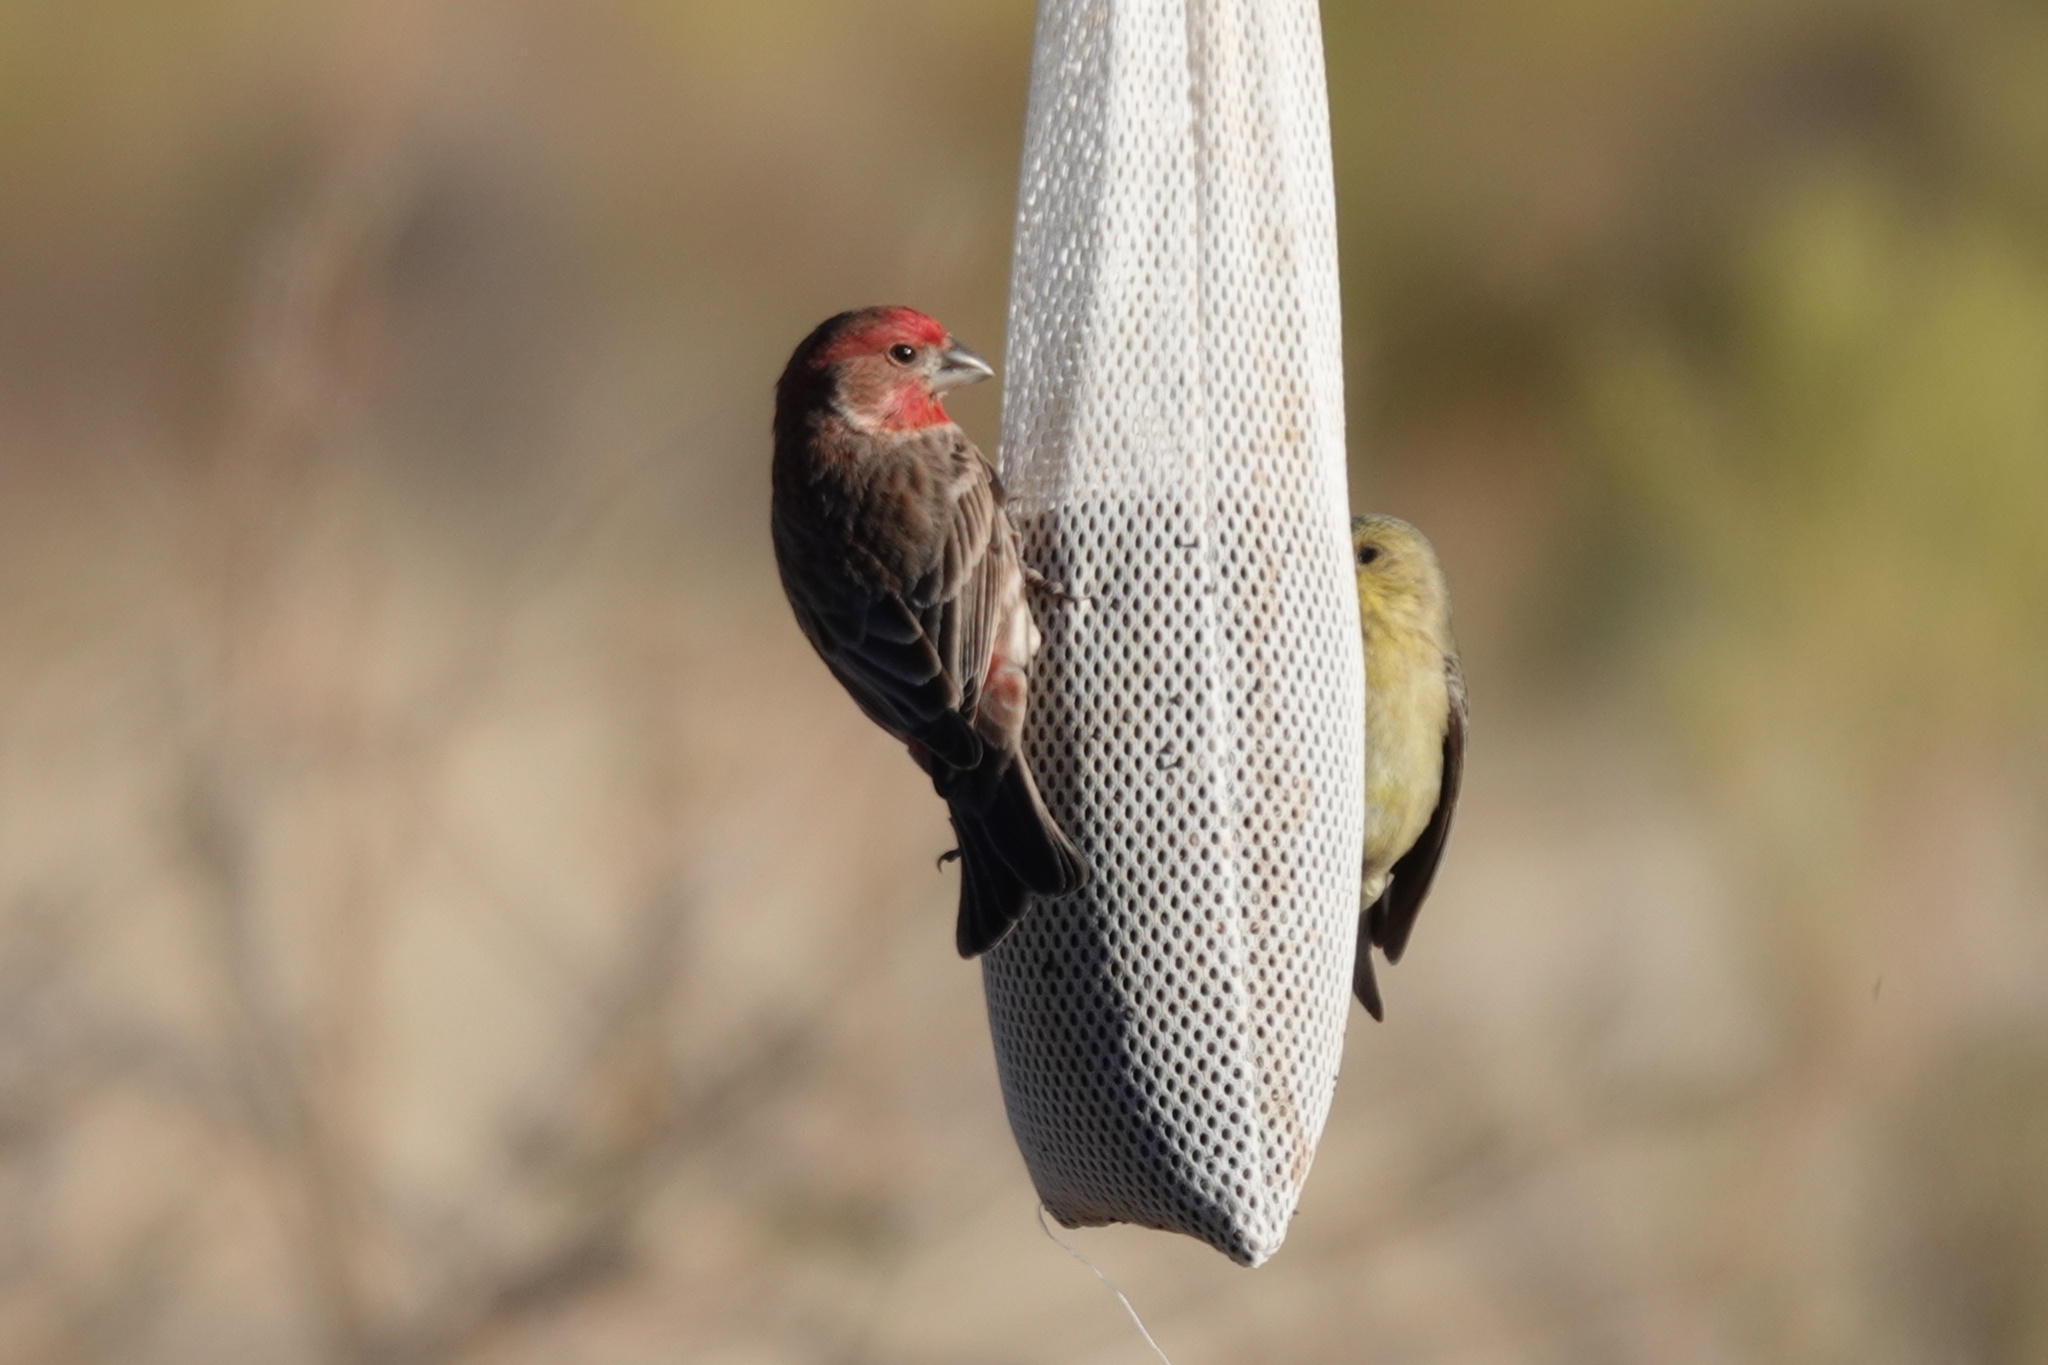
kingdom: Animalia
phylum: Chordata
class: Aves
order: Passeriformes
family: Fringillidae
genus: Haemorhous
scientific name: Haemorhous mexicanus
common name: House finch
